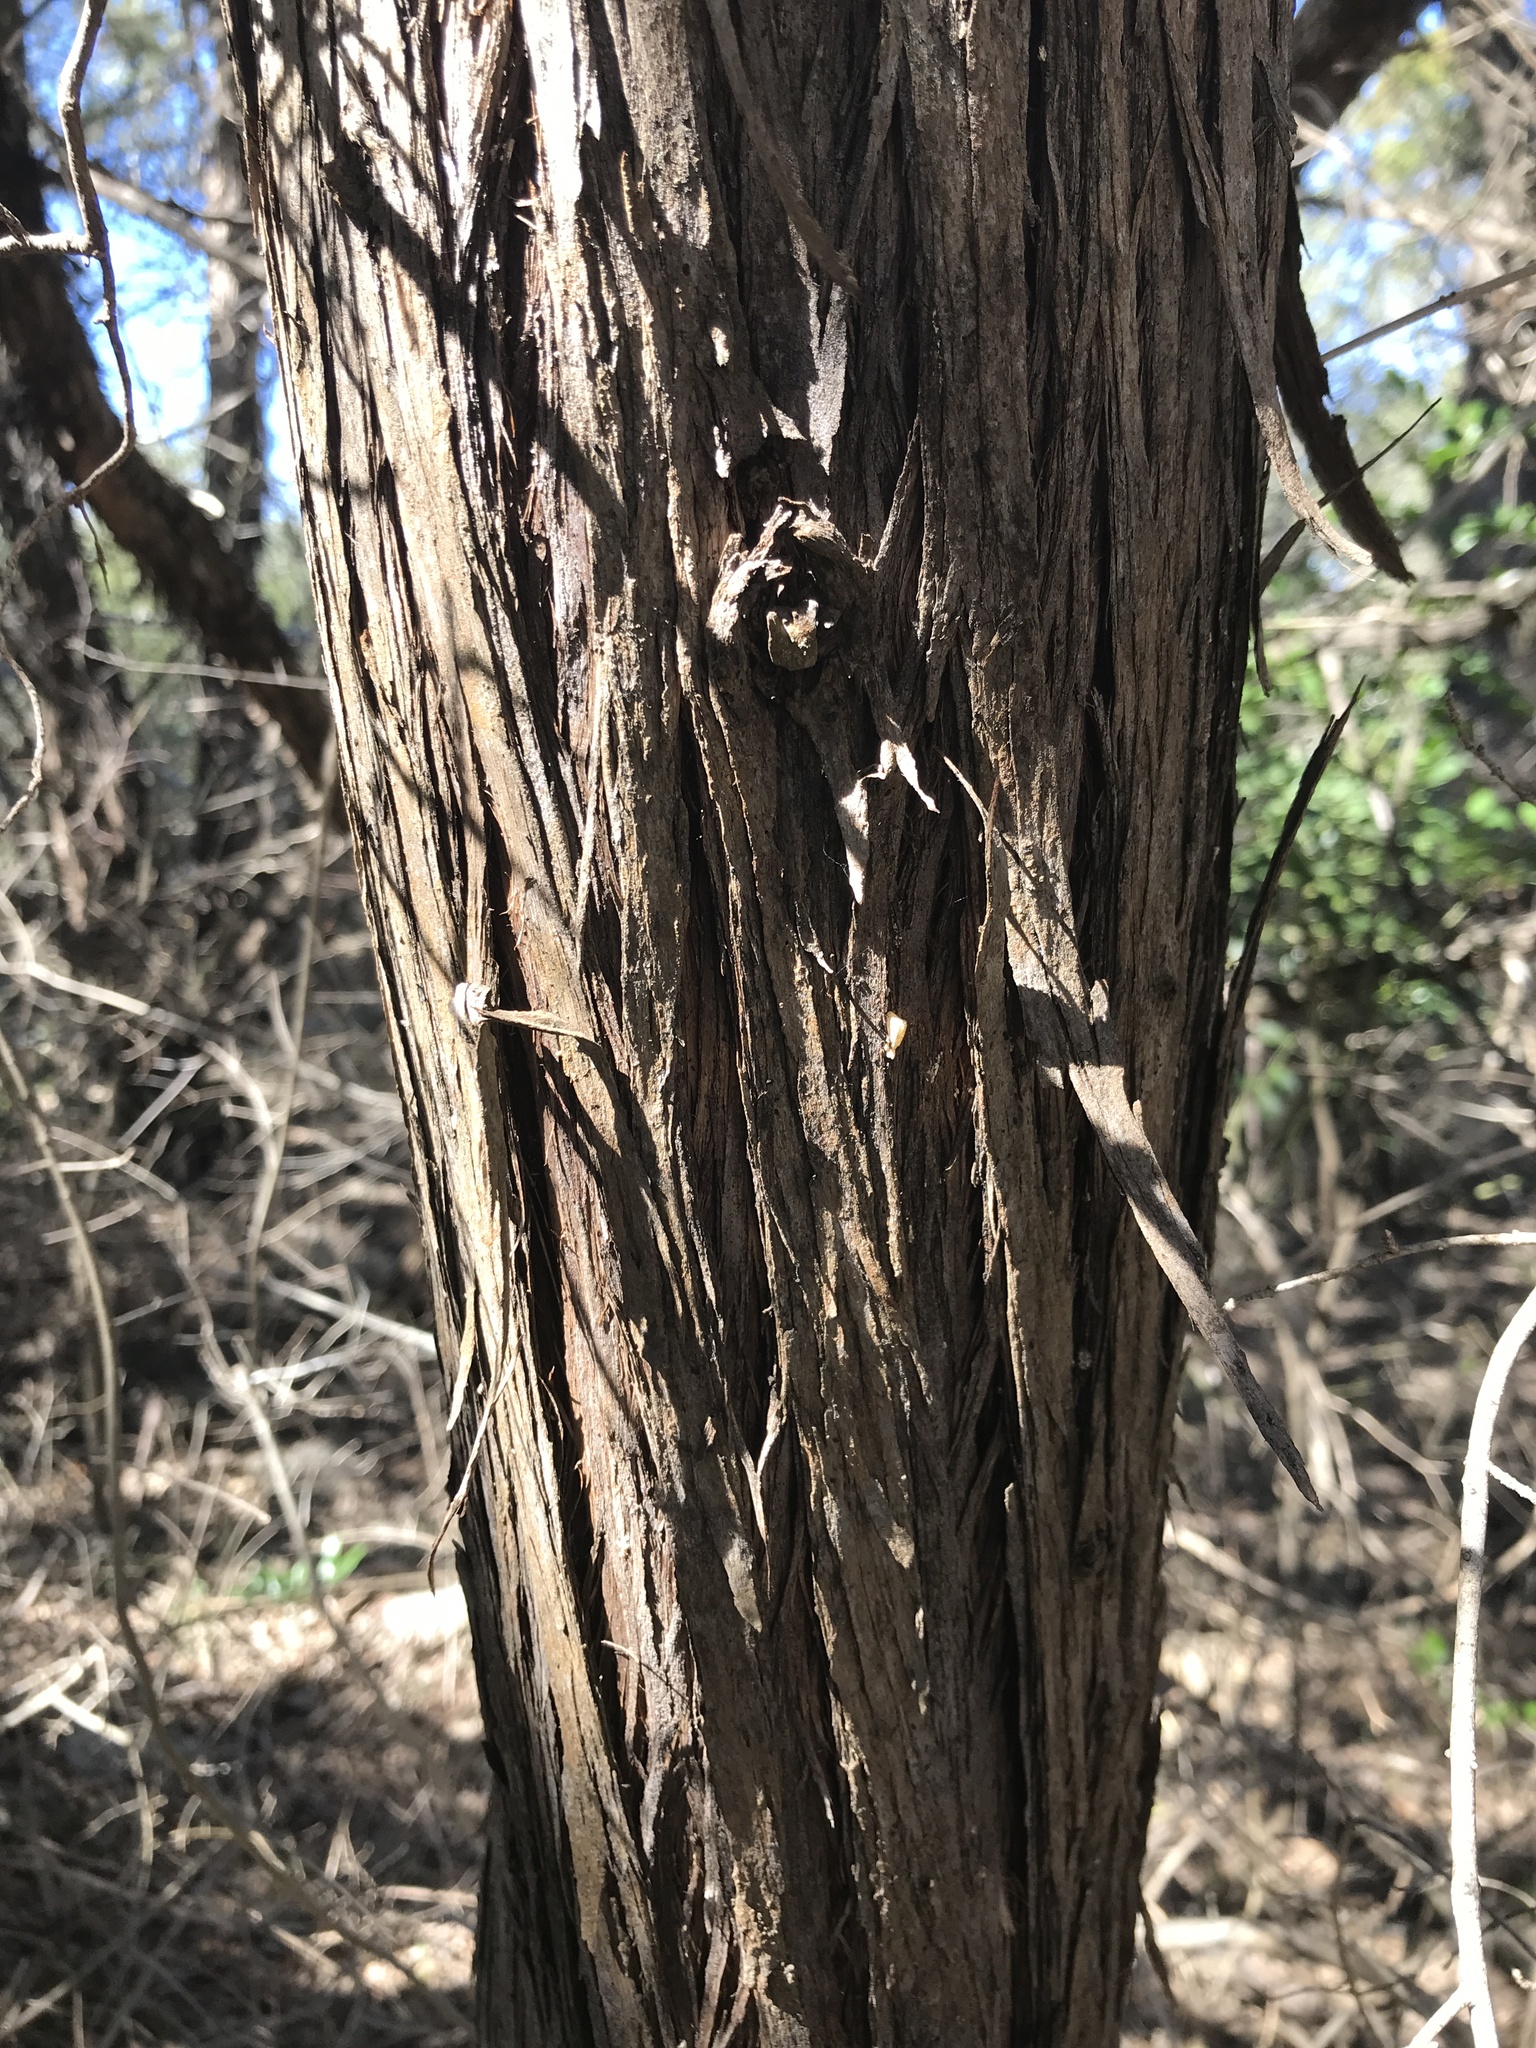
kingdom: Plantae
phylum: Tracheophyta
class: Pinopsida
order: Pinales
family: Cupressaceae
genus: Juniperus
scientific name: Juniperus ashei
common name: Mexican juniper
